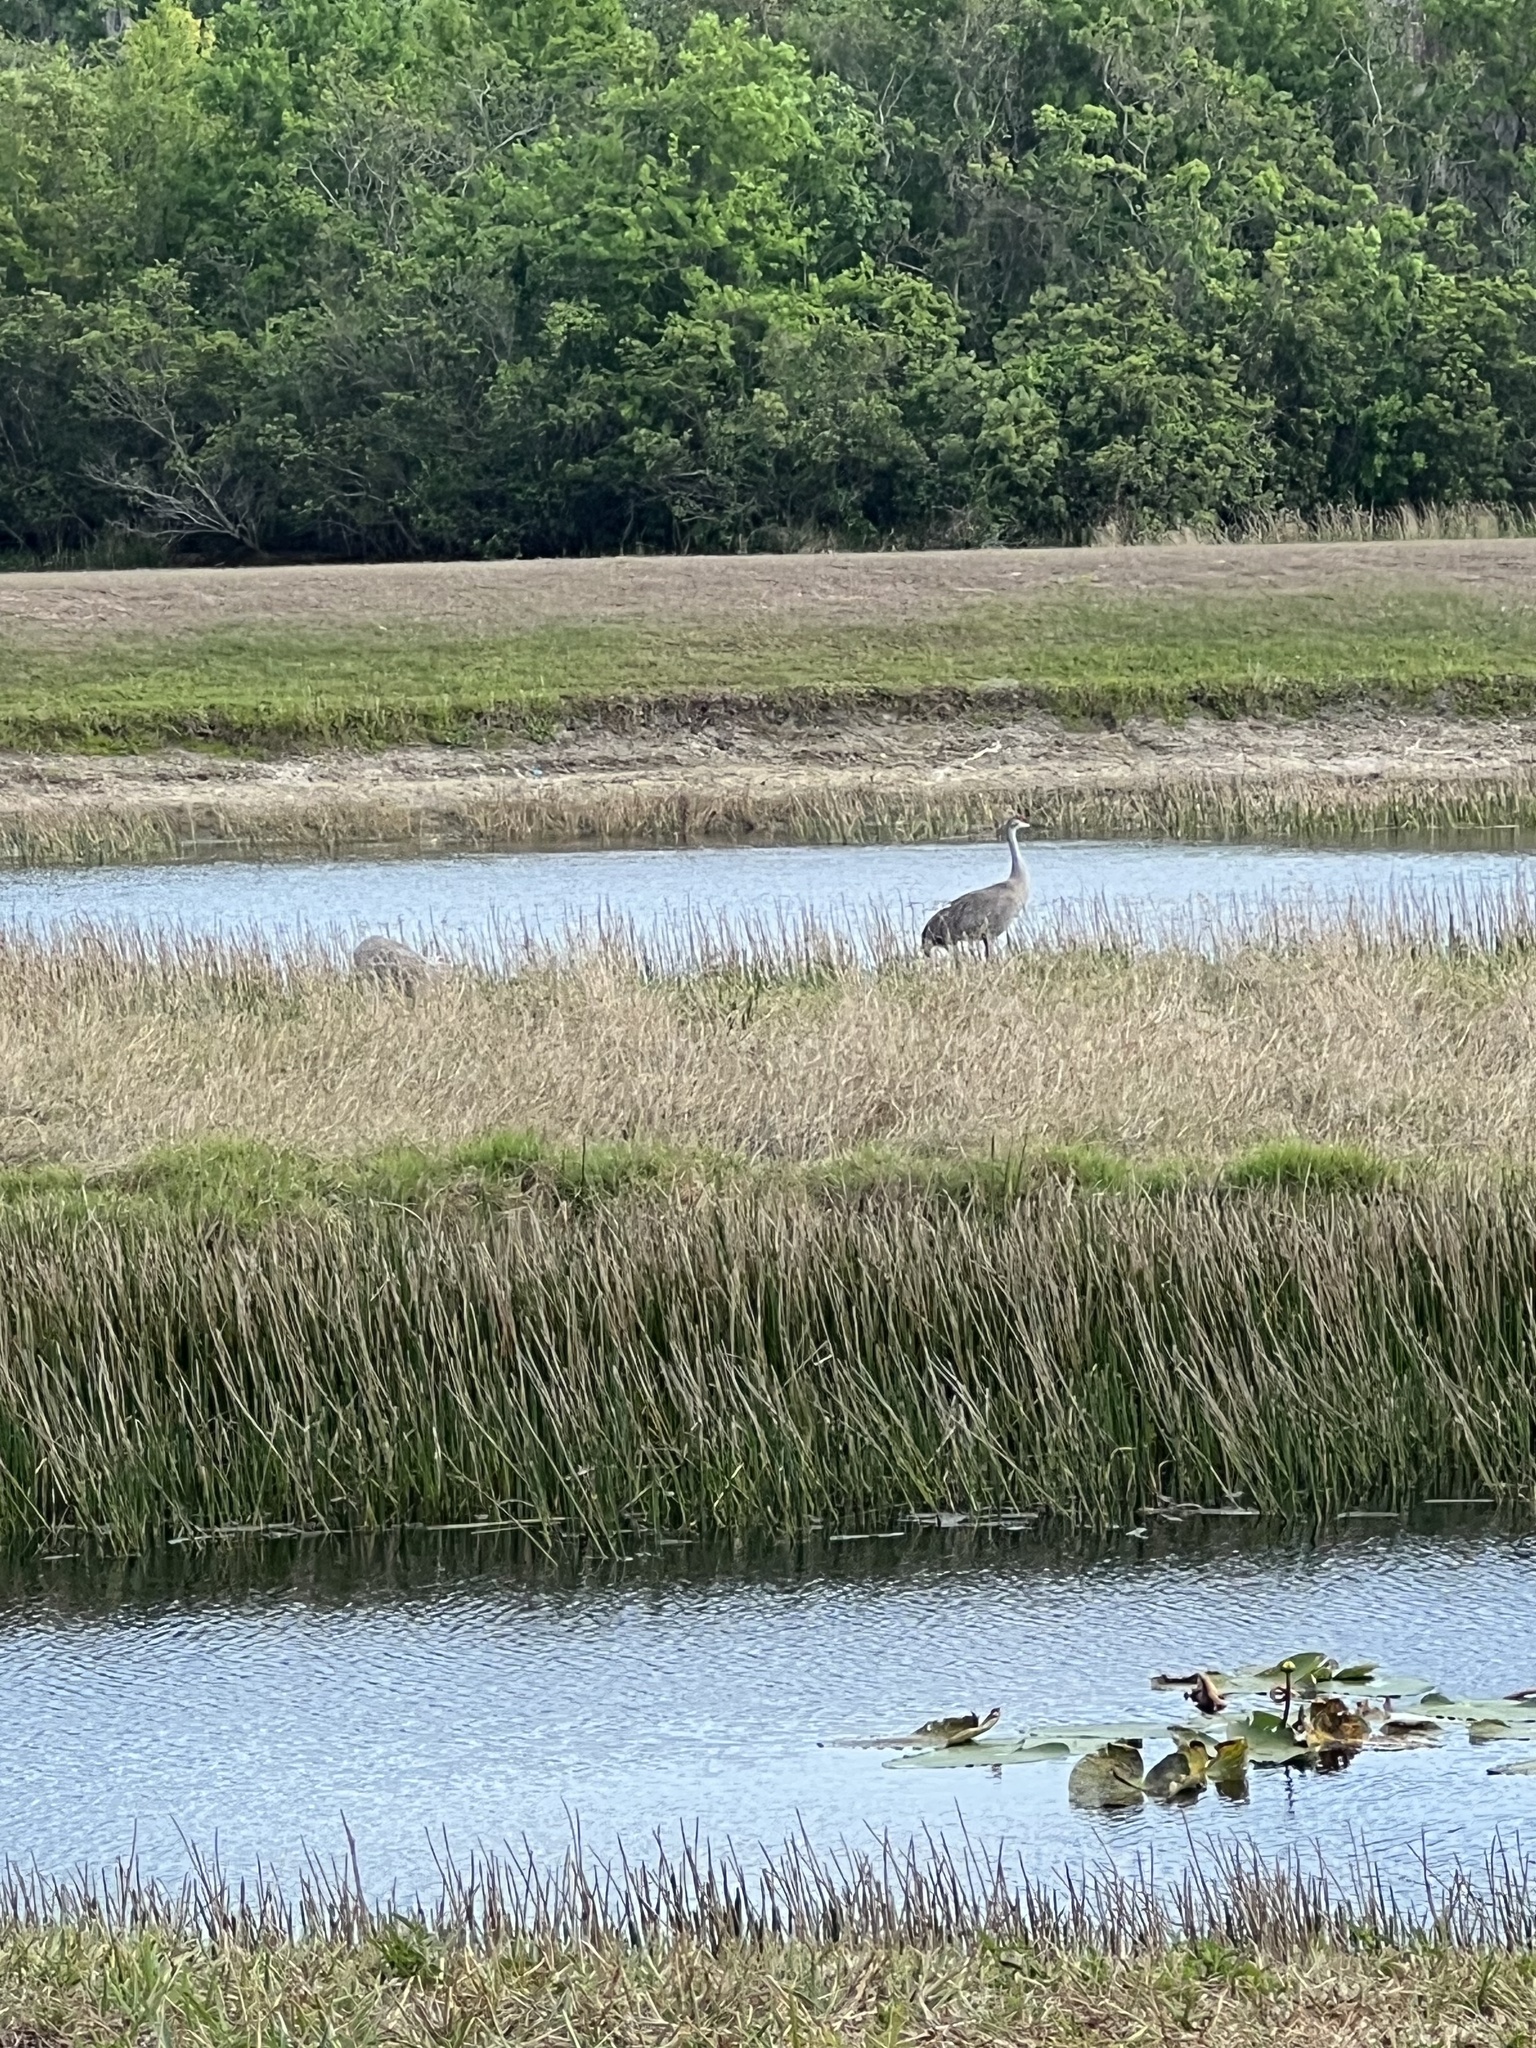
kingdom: Animalia
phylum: Chordata
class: Aves
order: Gruiformes
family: Gruidae
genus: Grus
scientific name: Grus canadensis
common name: Sandhill crane
